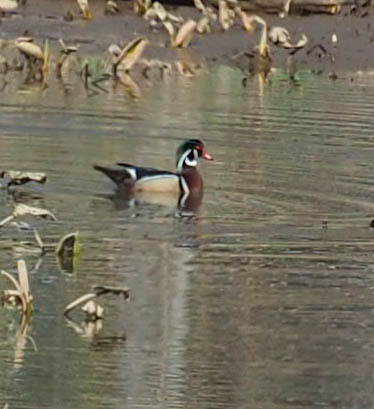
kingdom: Animalia
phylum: Chordata
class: Aves
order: Anseriformes
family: Anatidae
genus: Aix
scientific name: Aix sponsa
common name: Wood duck
